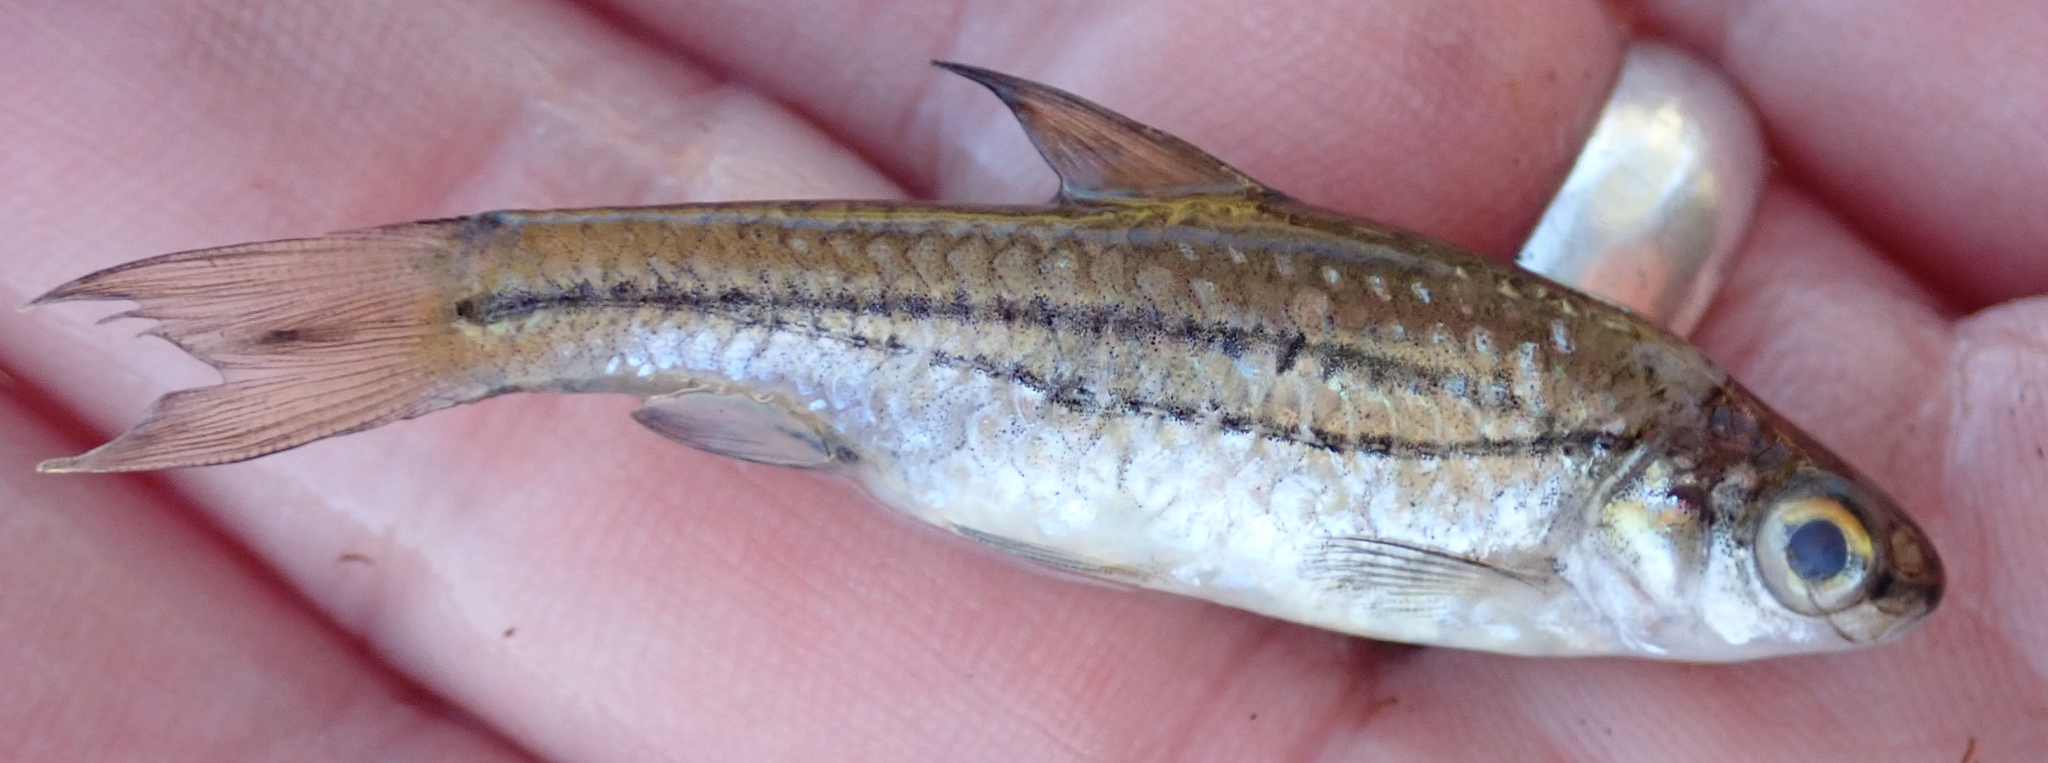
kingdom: Animalia
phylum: Chordata
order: Cypriniformes
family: Cyprinidae
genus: Enteromius
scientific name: Enteromius bifrenatus
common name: Hyphen barb
